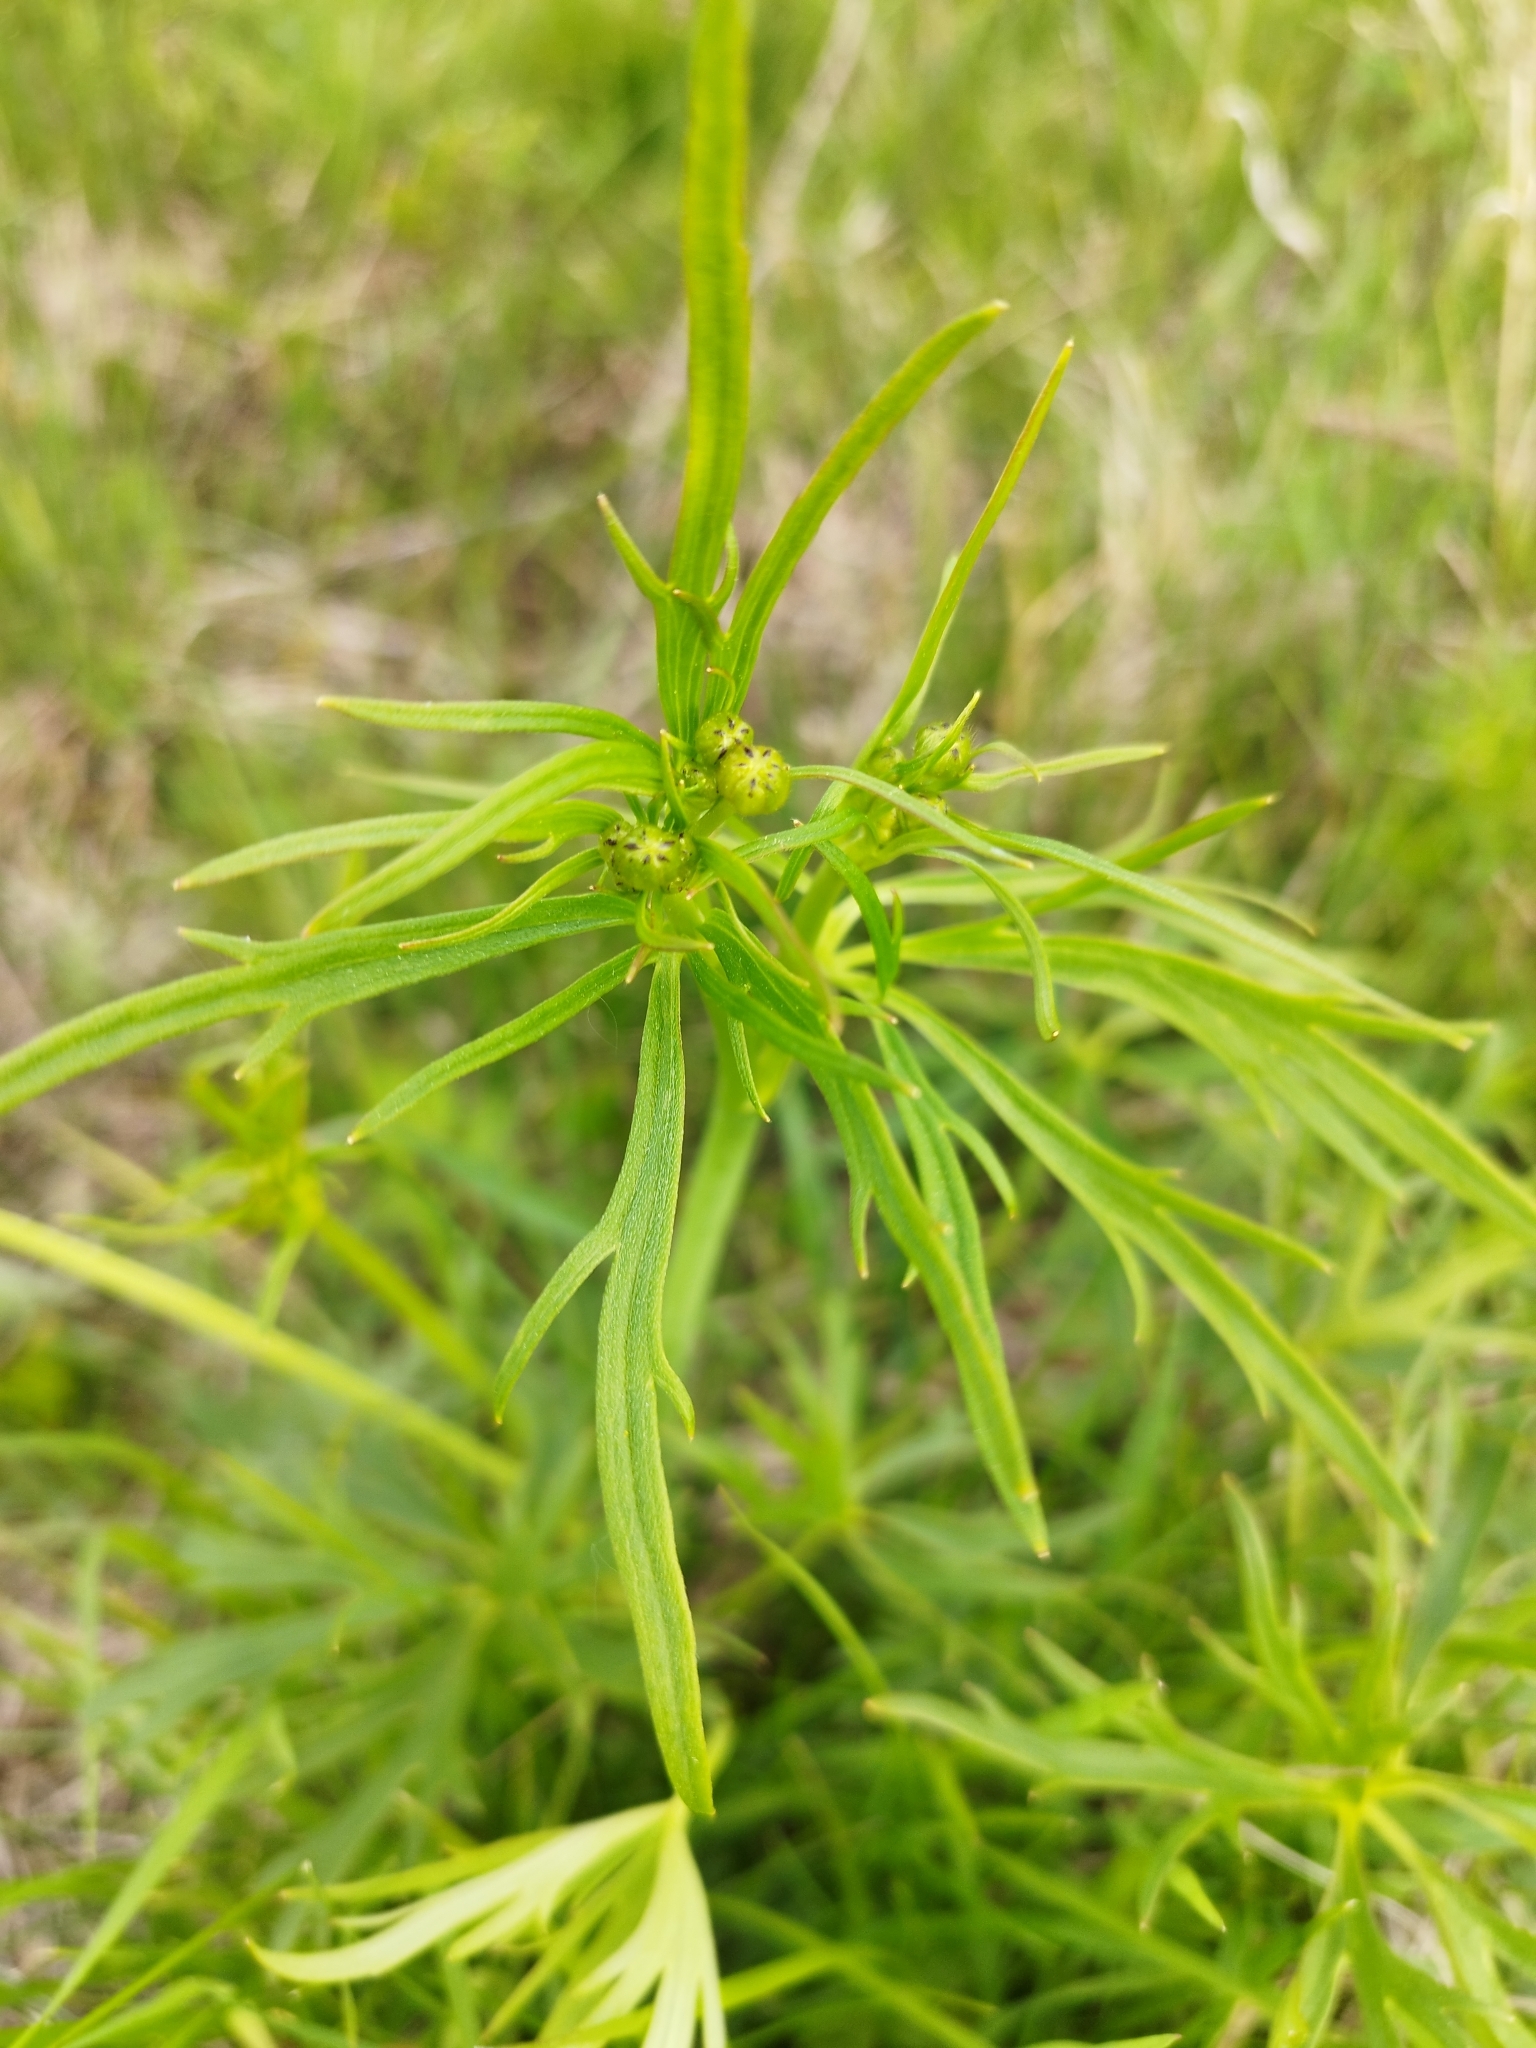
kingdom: Plantae
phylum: Tracheophyta
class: Magnoliopsida
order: Ranunculales
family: Ranunculaceae
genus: Ranunculus
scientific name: Ranunculus acris
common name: Meadow buttercup
